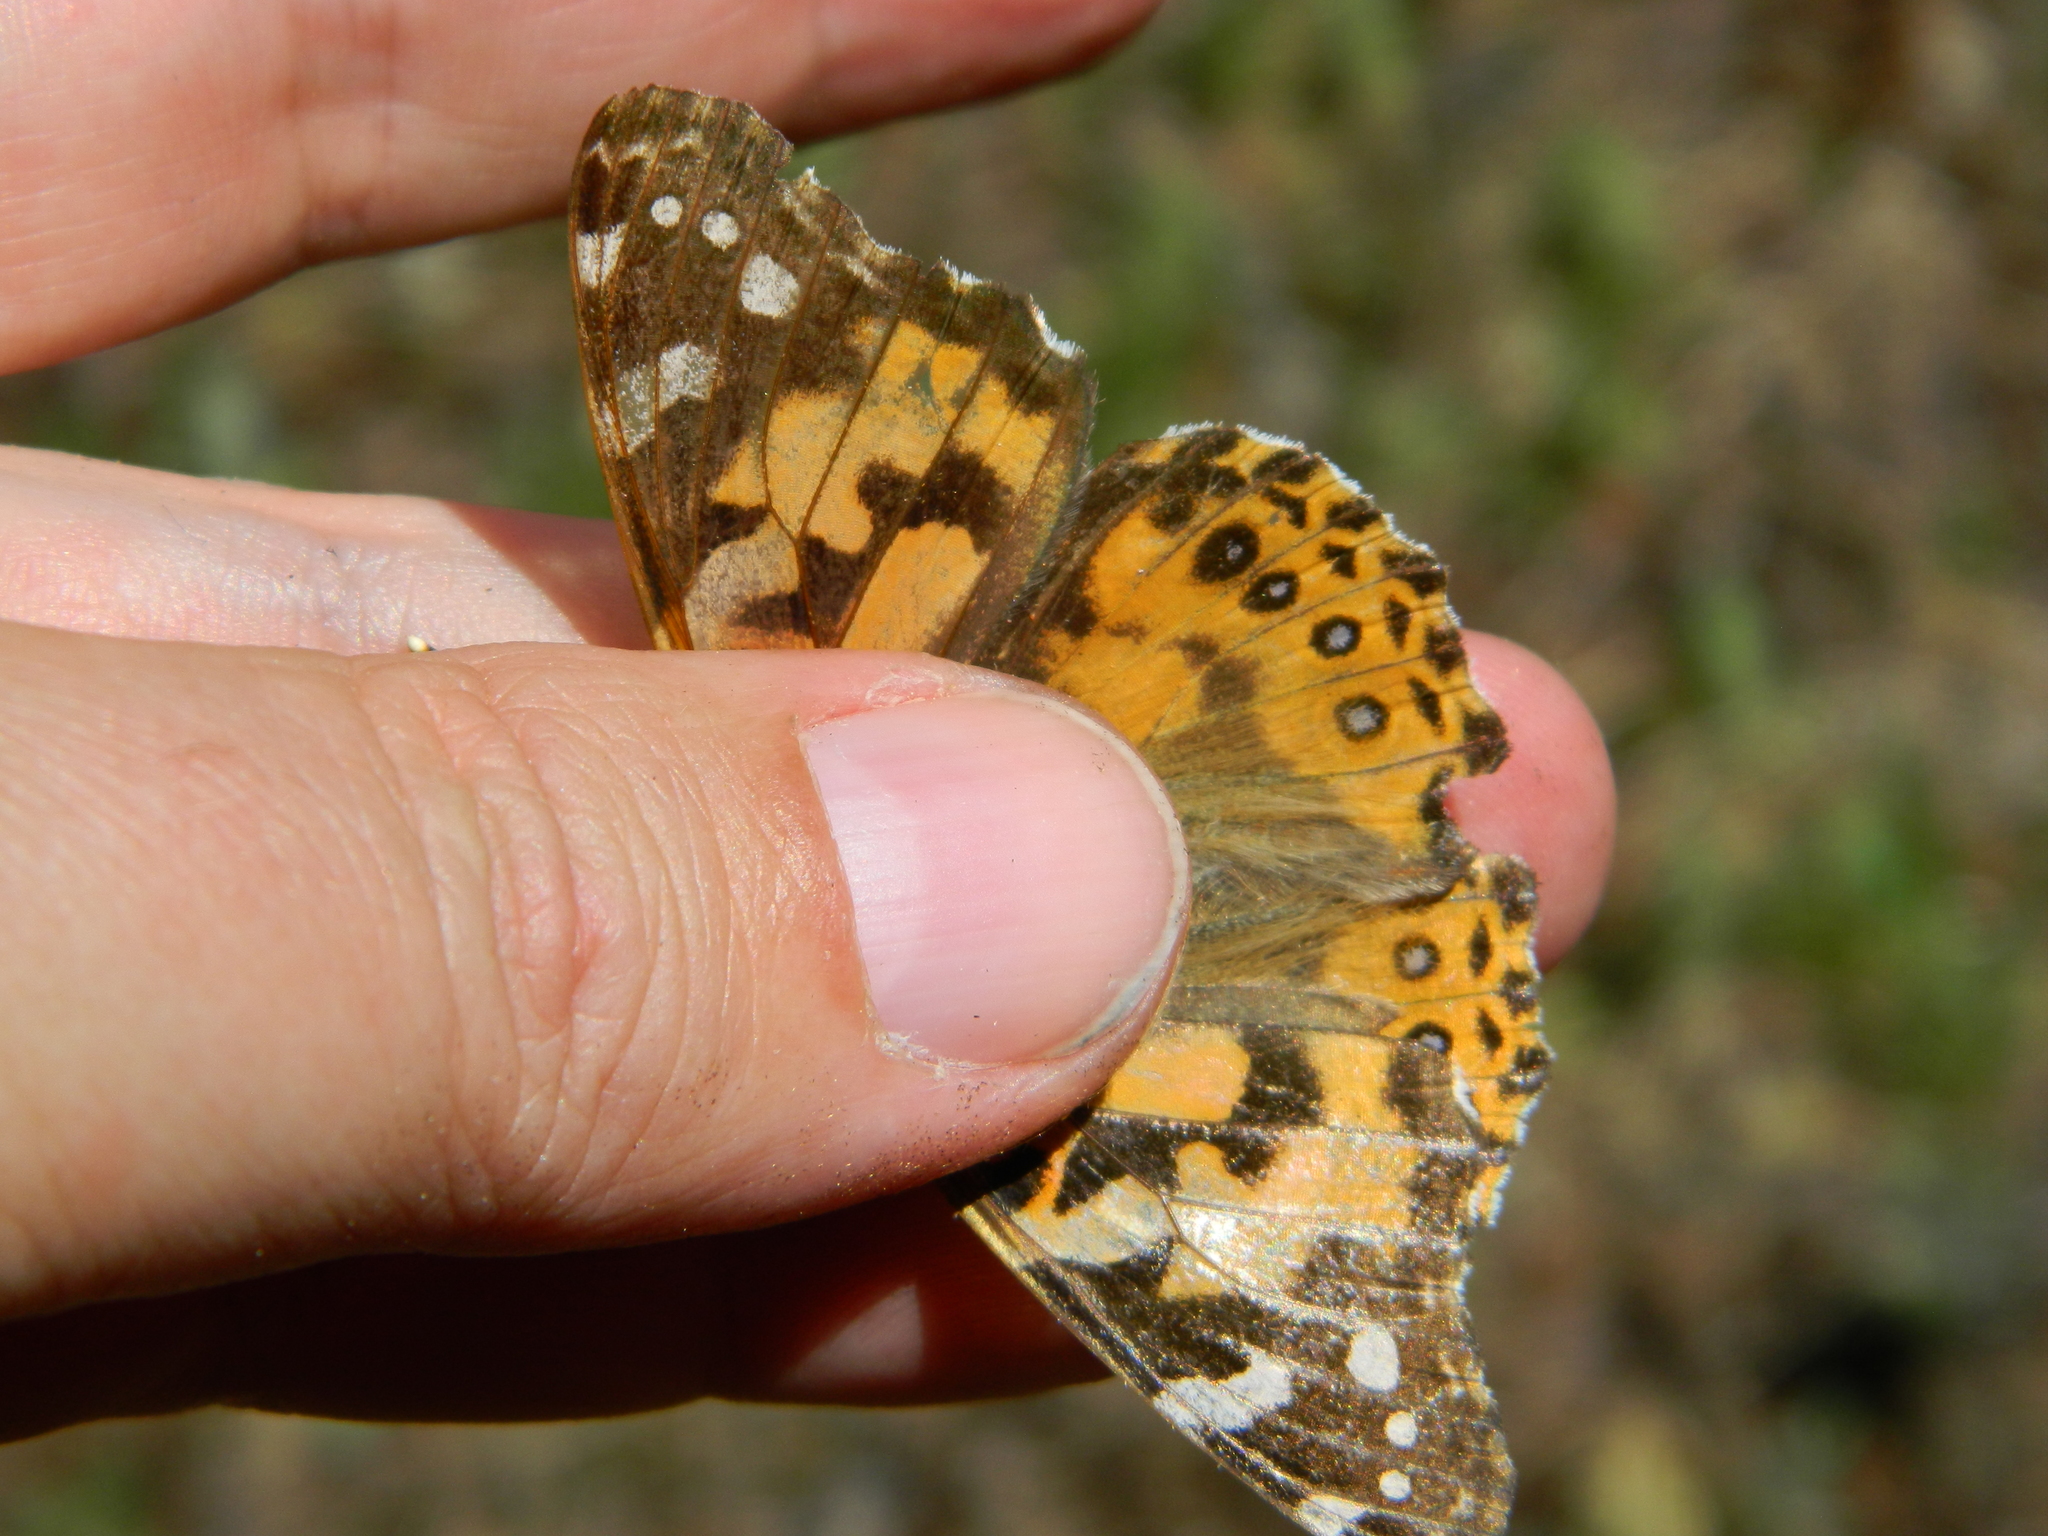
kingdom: Animalia
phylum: Arthropoda
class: Insecta
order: Lepidoptera
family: Nymphalidae
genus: Vanessa
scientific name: Vanessa cardui
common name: Painted lady
